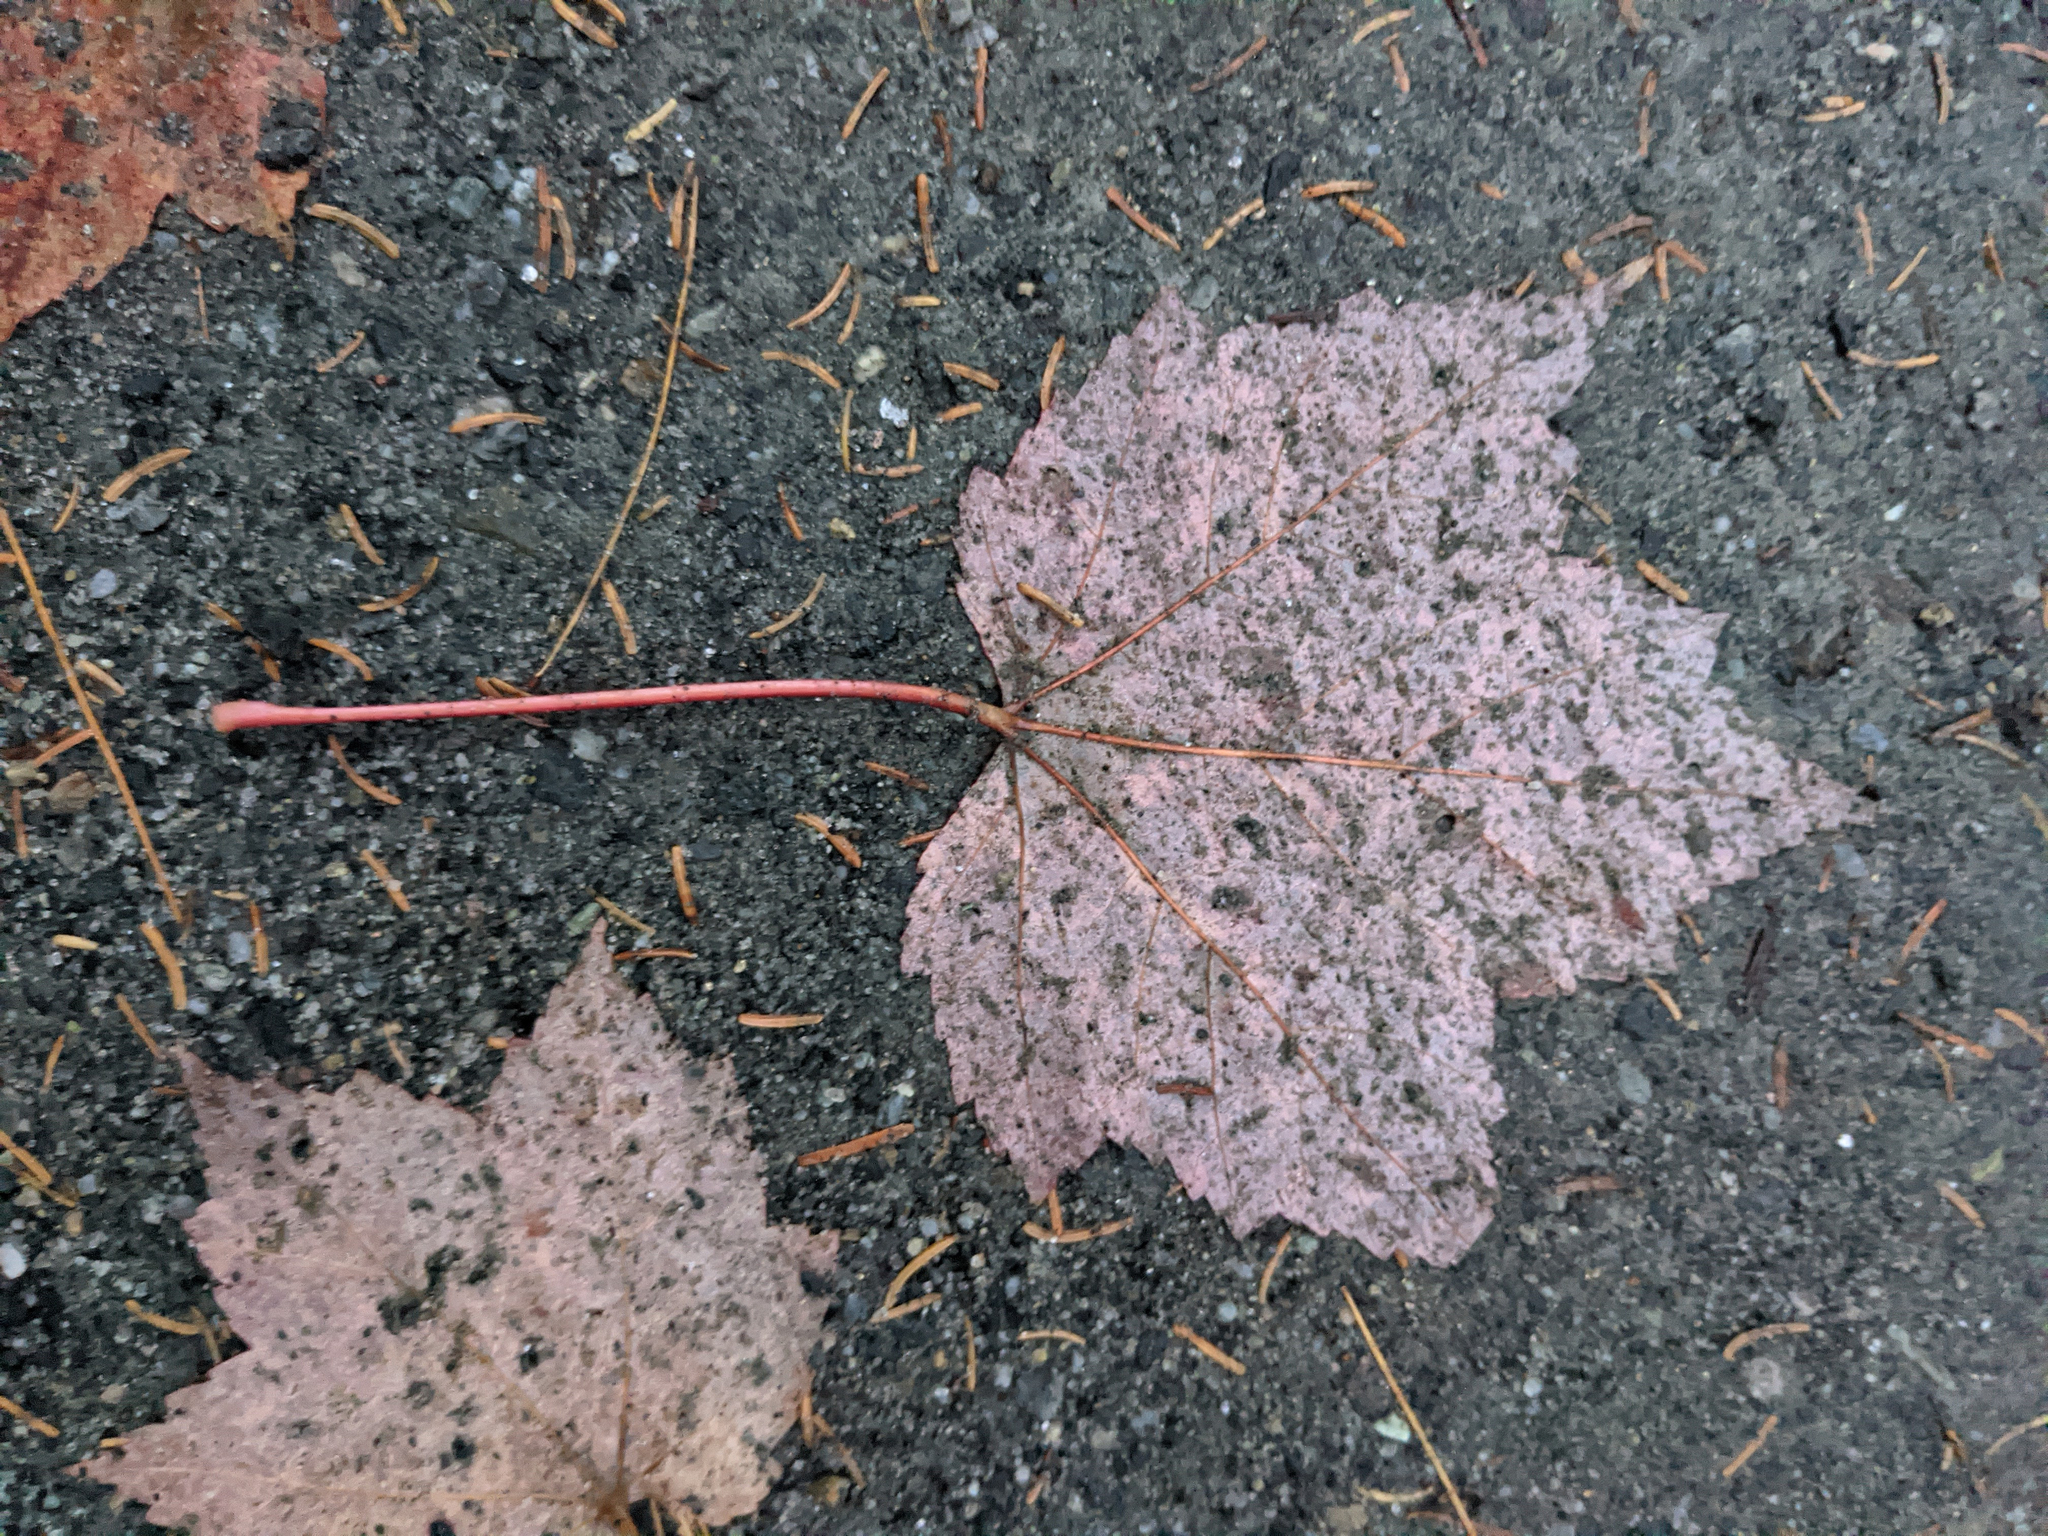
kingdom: Plantae
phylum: Tracheophyta
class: Magnoliopsida
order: Sapindales
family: Sapindaceae
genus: Acer
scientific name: Acer rubrum
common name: Red maple
